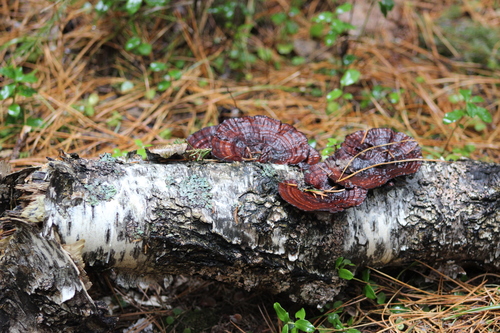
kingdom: Fungi
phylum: Basidiomycota
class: Agaricomycetes
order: Polyporales
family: Polyporaceae
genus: Daedaleopsis
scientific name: Daedaleopsis tricolor
